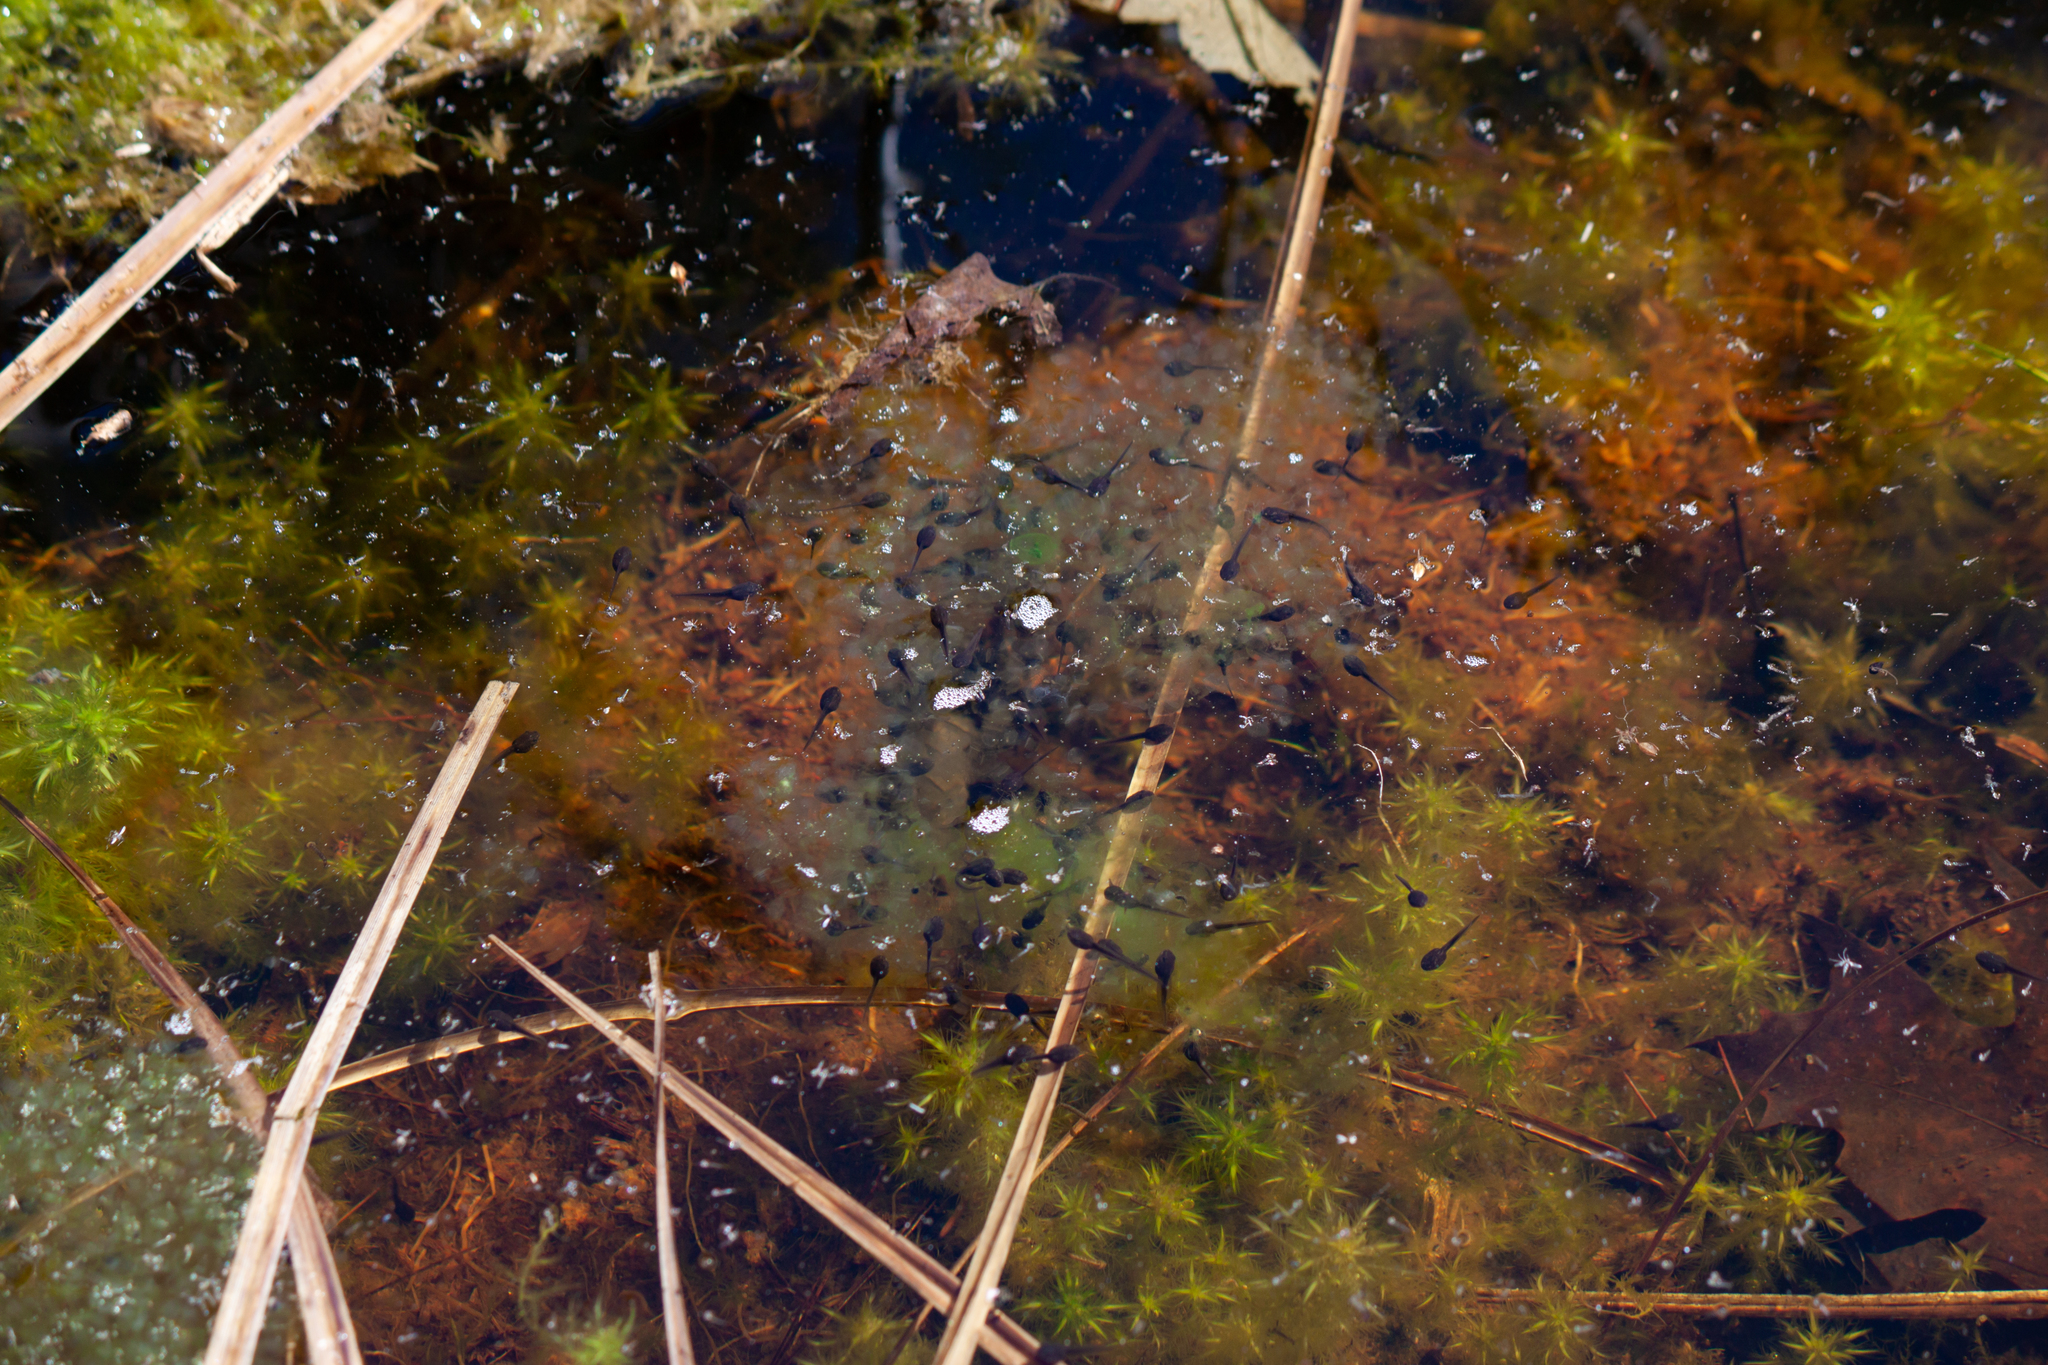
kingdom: Animalia
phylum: Chordata
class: Amphibia
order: Anura
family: Ranidae
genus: Lithobates
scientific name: Lithobates sylvaticus
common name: Wood frog
